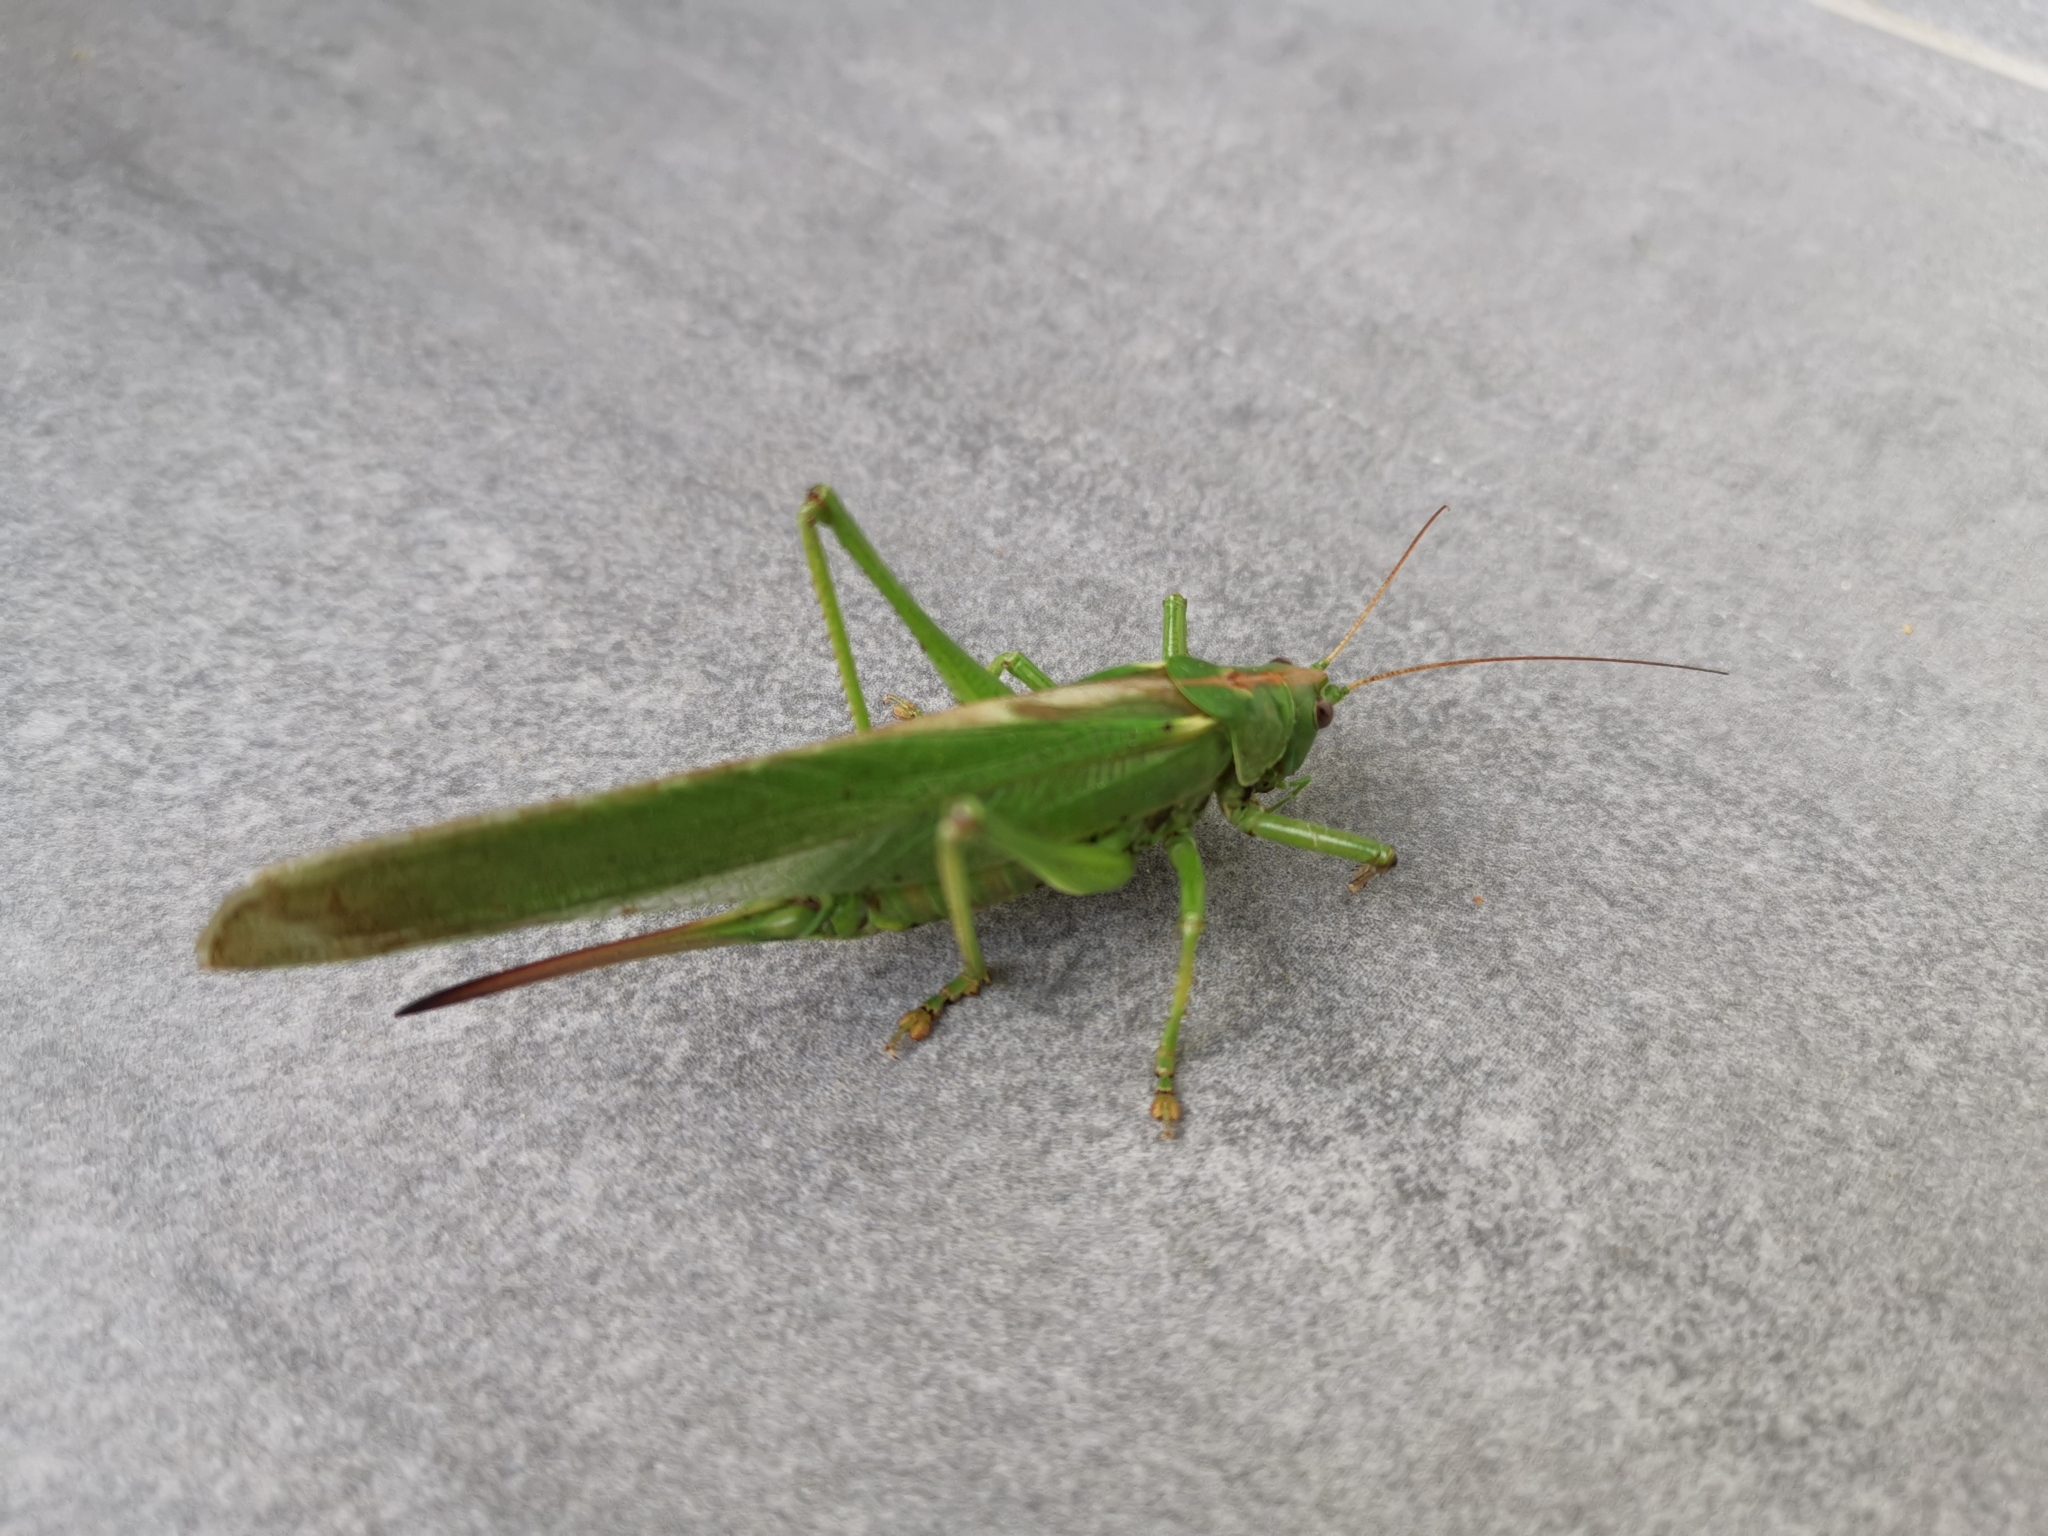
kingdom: Animalia
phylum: Arthropoda
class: Insecta
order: Orthoptera
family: Tettigoniidae
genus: Tettigonia
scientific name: Tettigonia viridissima
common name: Great green bush-cricket
